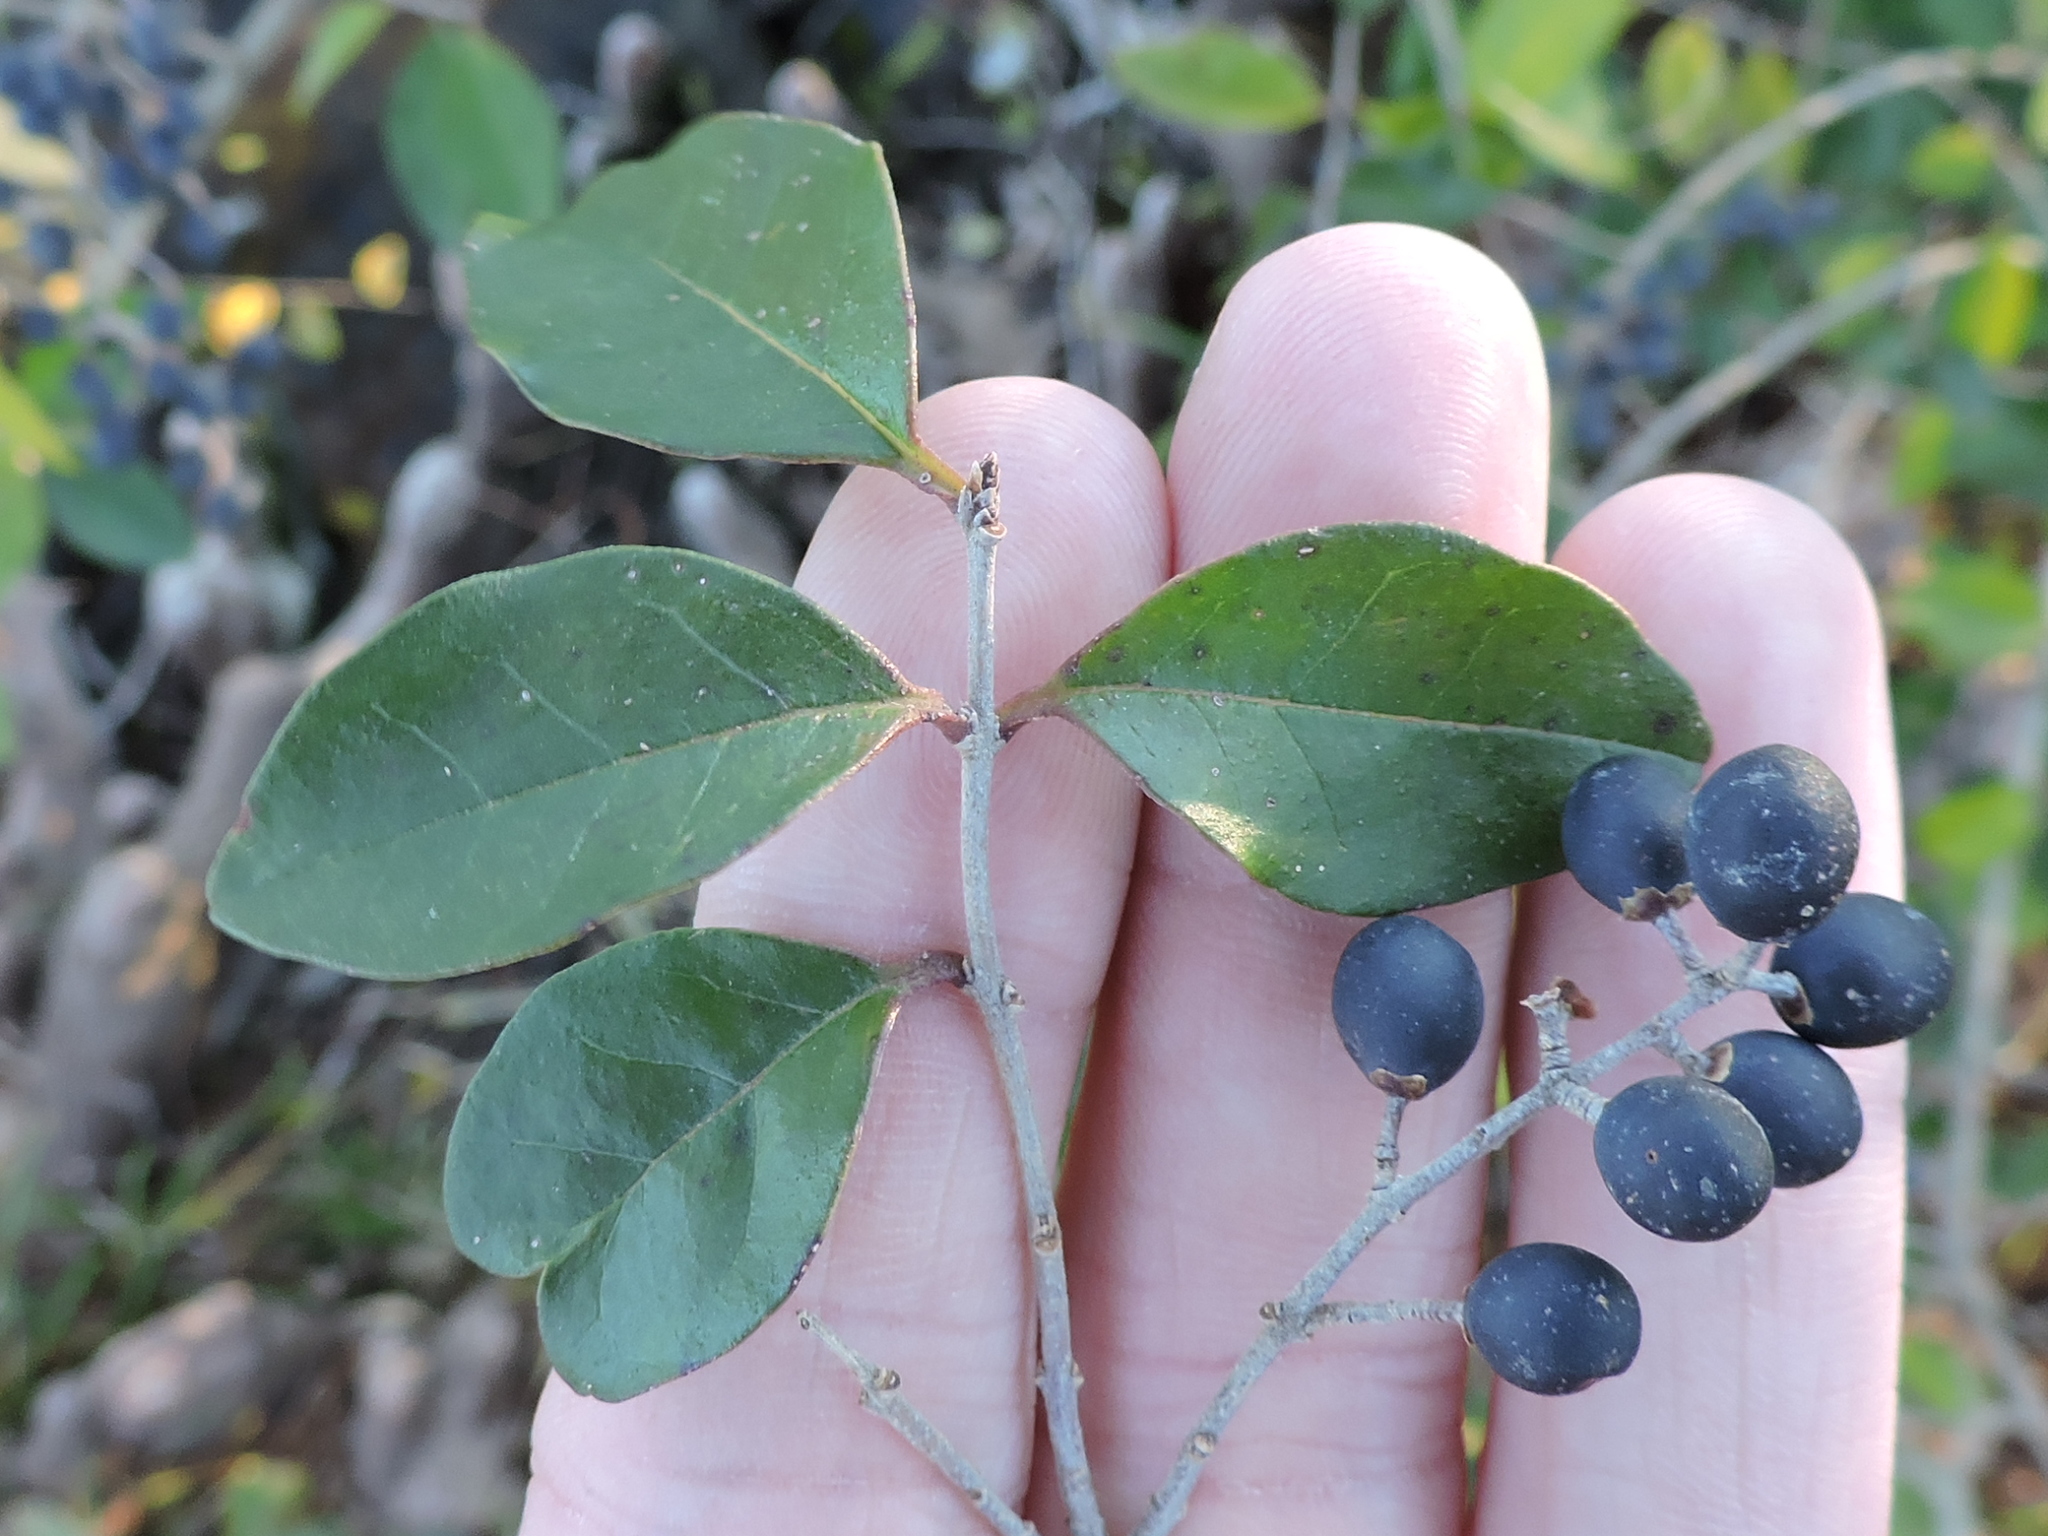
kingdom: Plantae
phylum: Tracheophyta
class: Magnoliopsida
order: Lamiales
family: Oleaceae
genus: Ligustrum
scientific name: Ligustrum sinense
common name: Chinese privet
